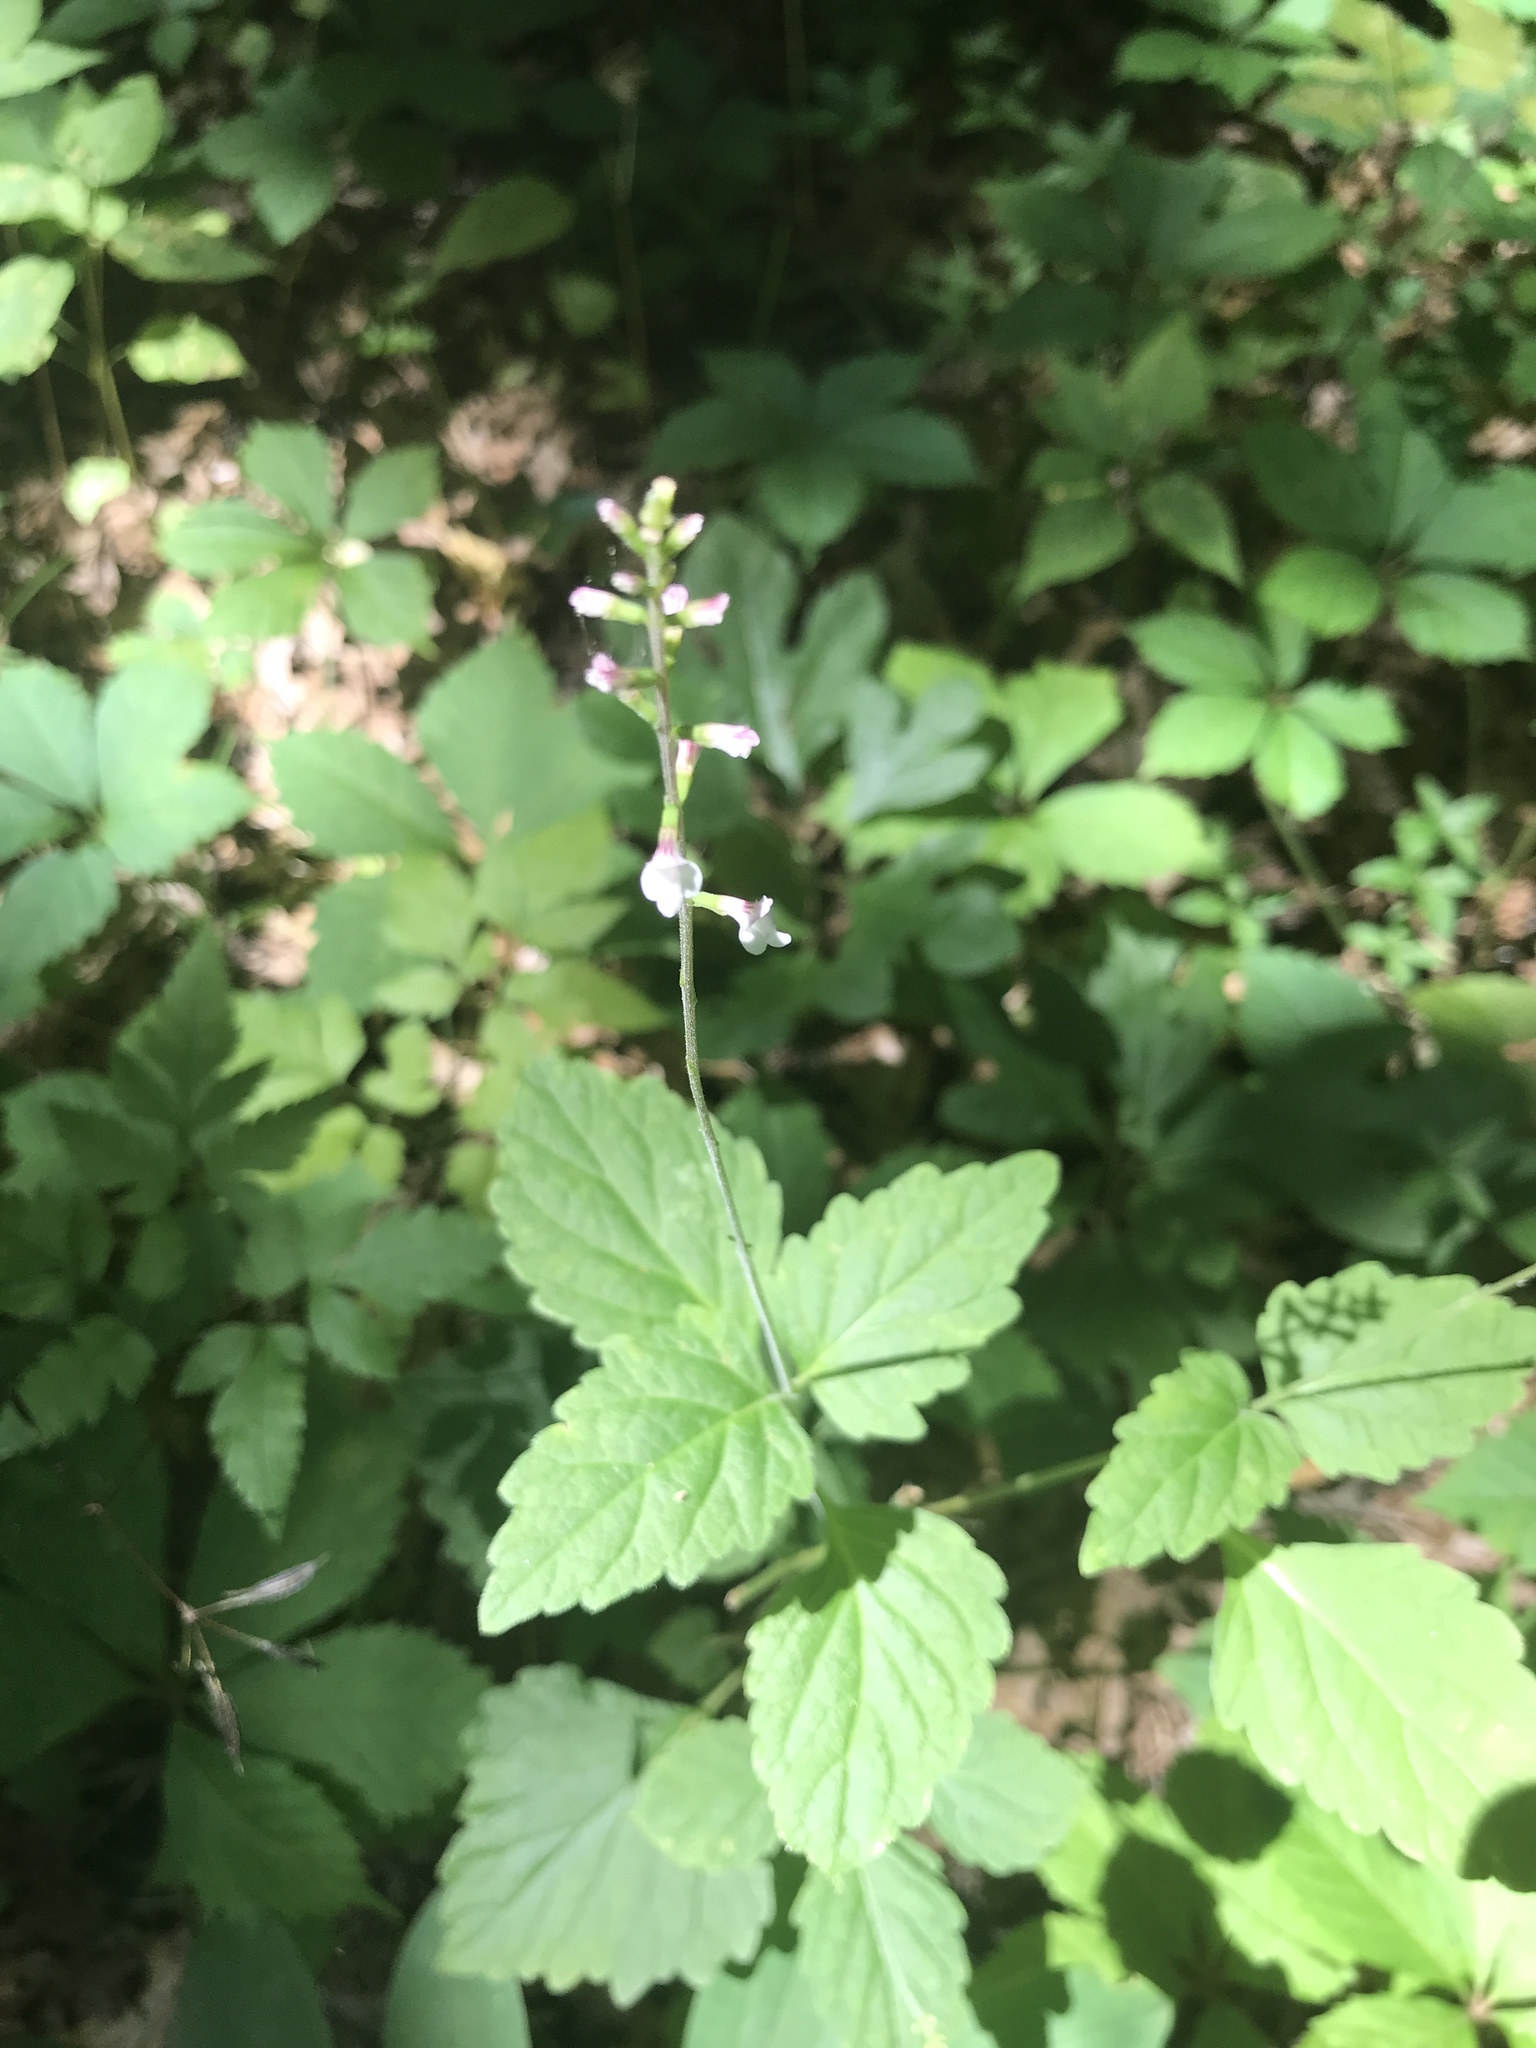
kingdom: Plantae
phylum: Tracheophyta
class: Magnoliopsida
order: Lamiales
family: Phrymaceae
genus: Phryma
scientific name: Phryma leptostachya
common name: American lopseed
